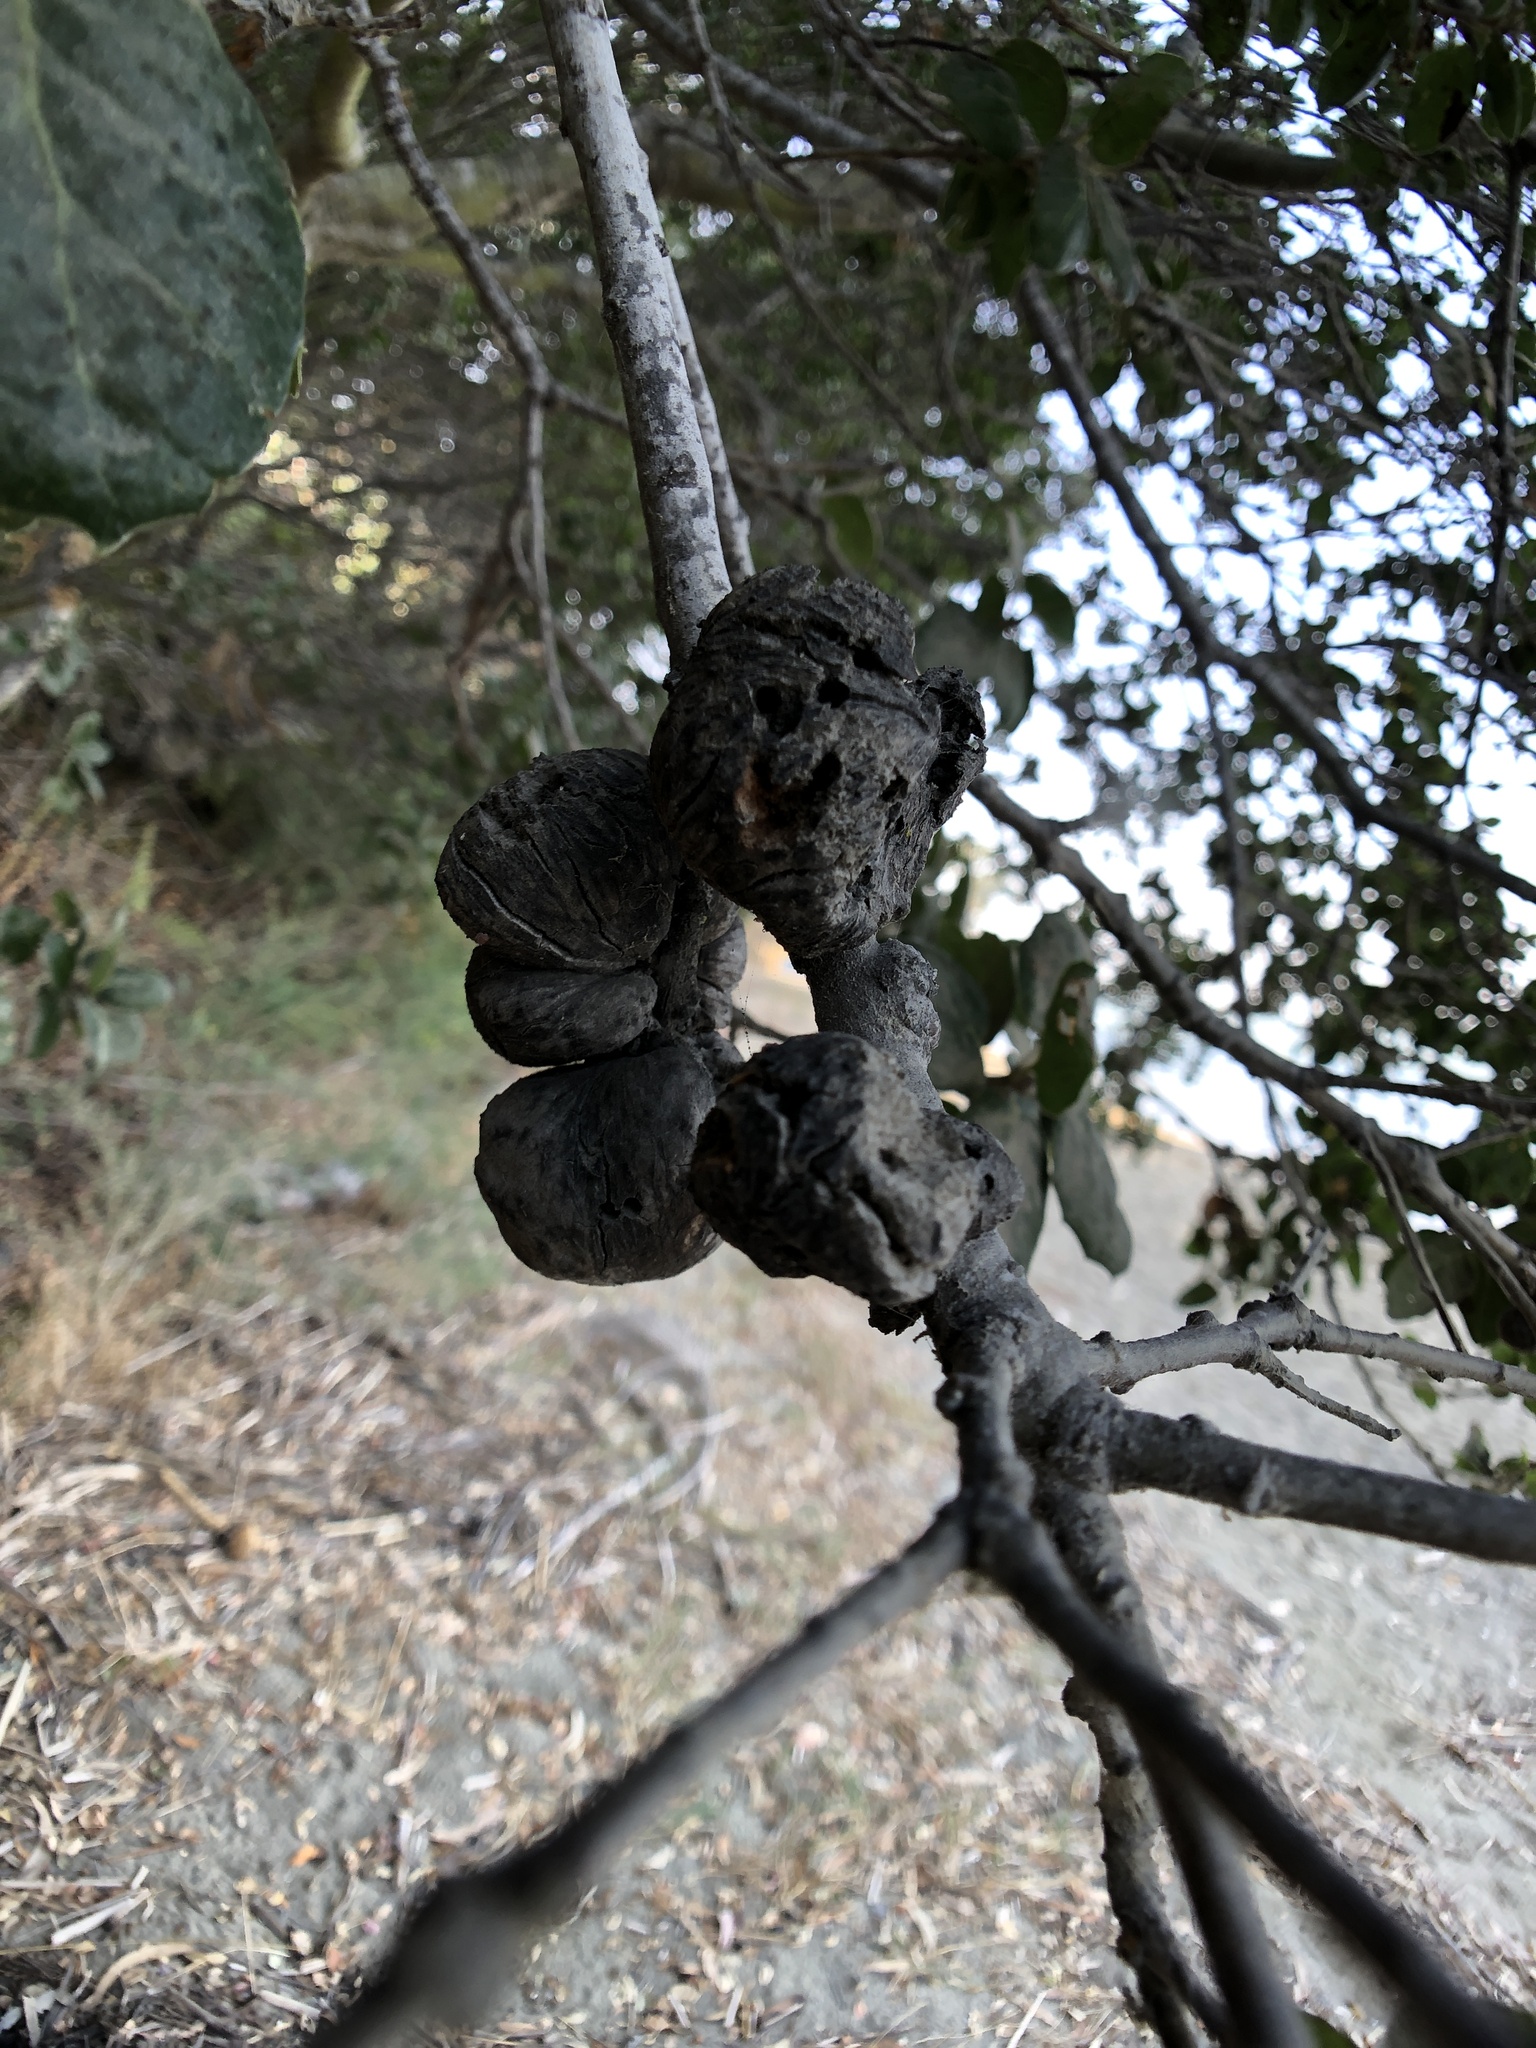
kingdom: Animalia
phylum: Arthropoda
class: Insecta
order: Hymenoptera
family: Cynipidae
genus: Amphibolips
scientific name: Amphibolips quercuspomiformis
